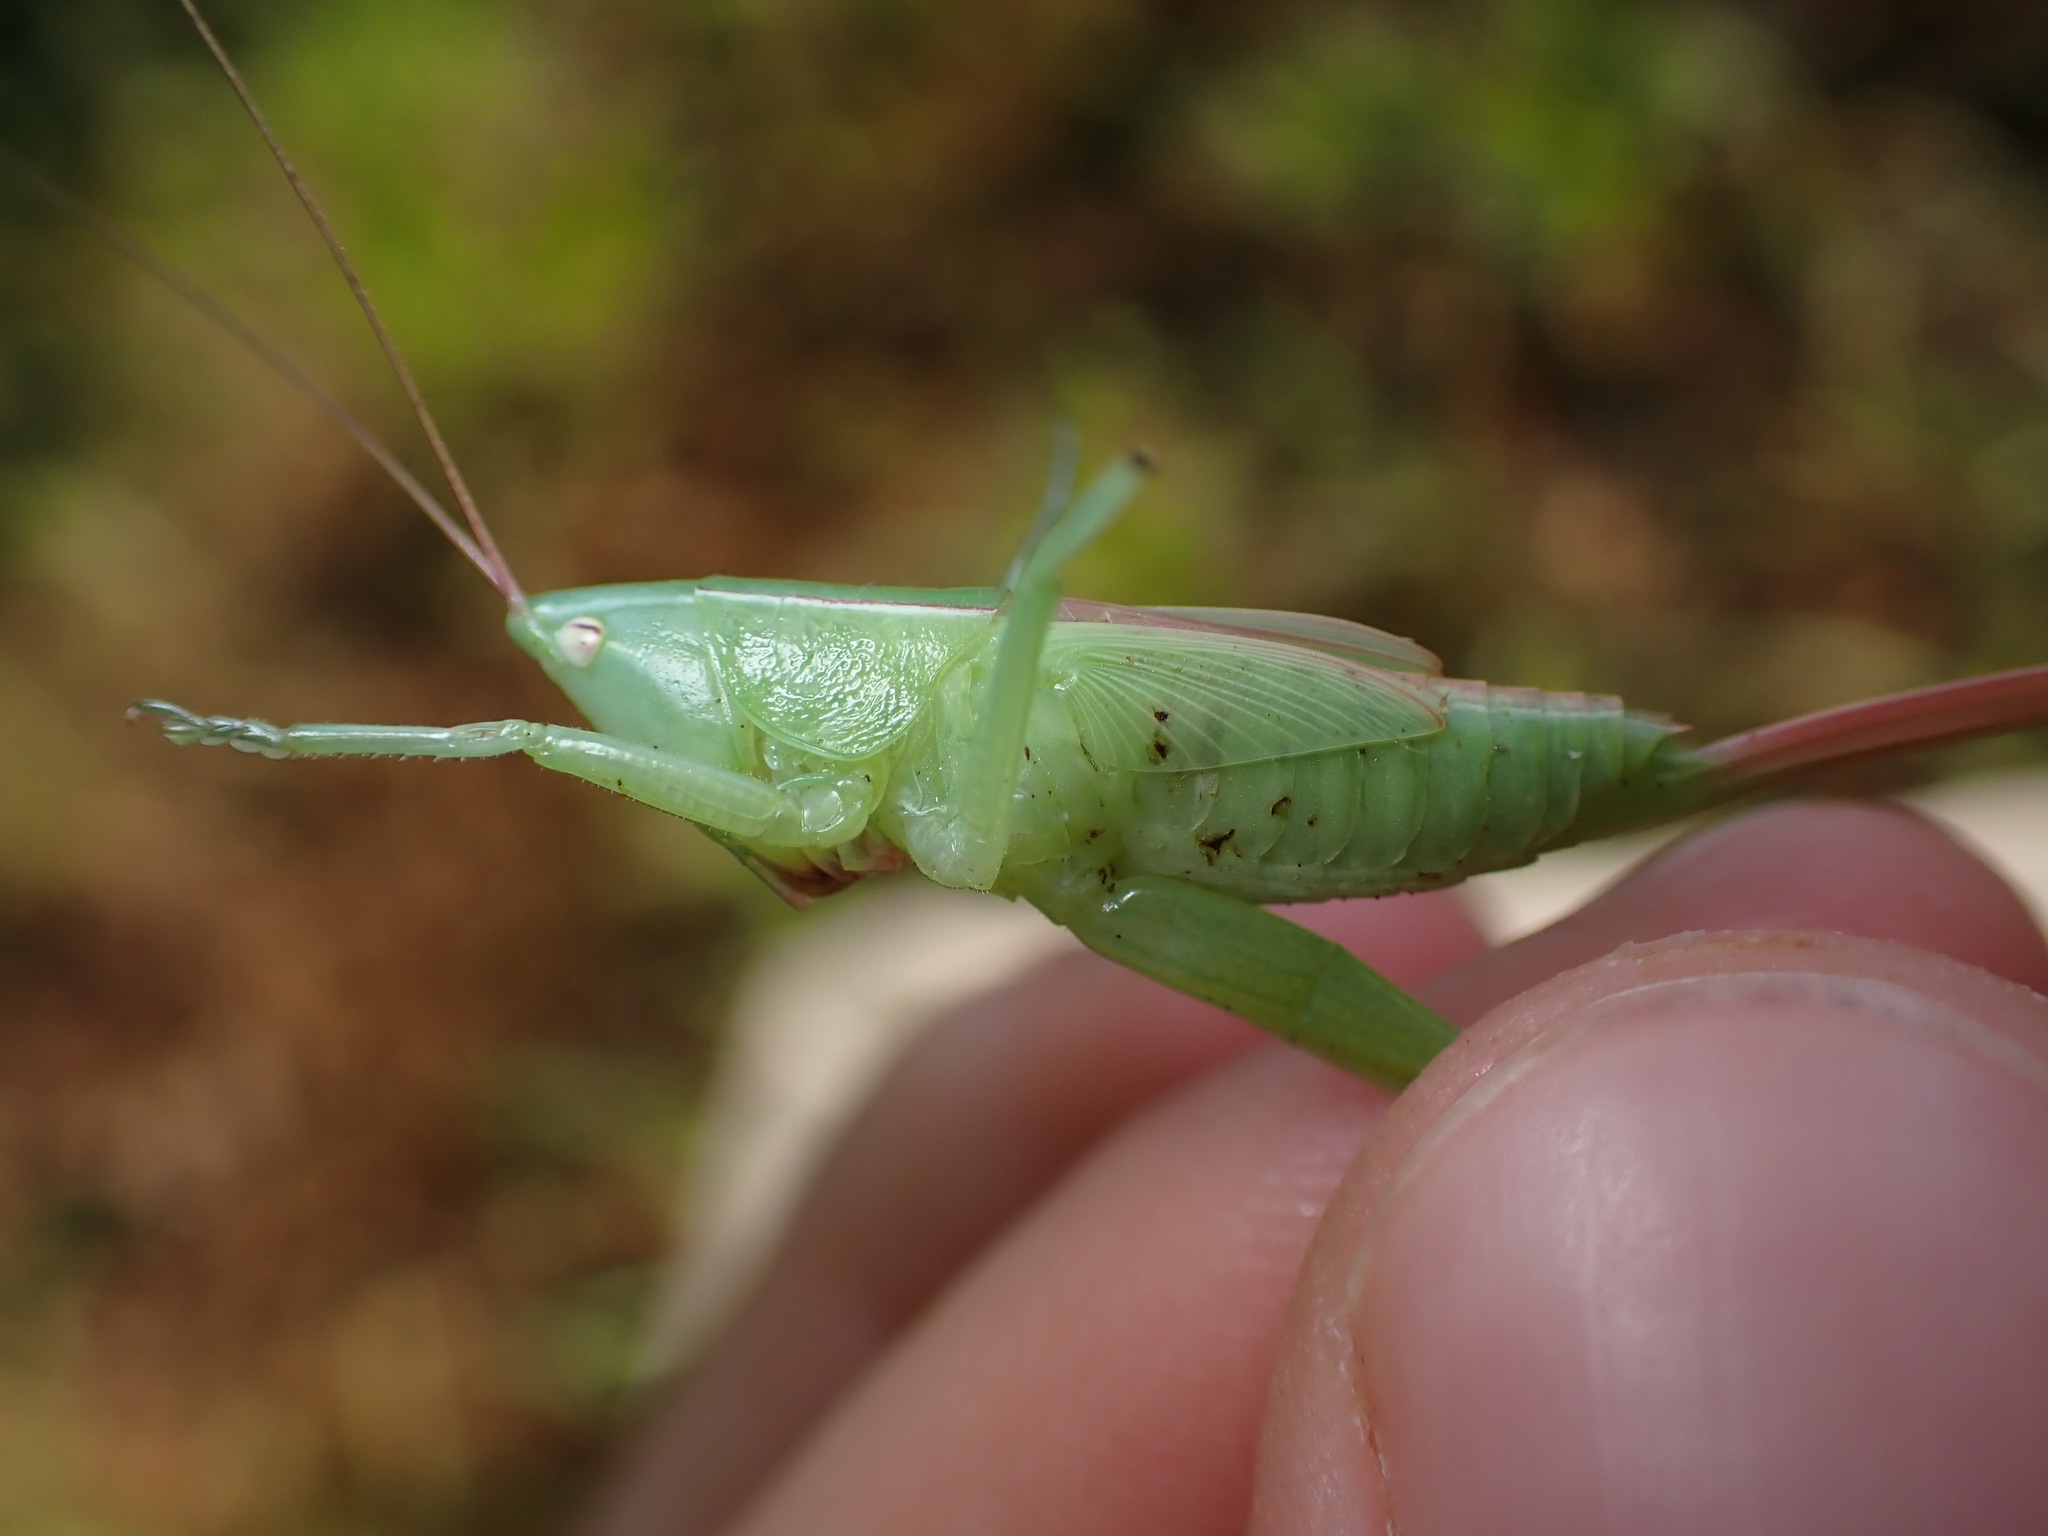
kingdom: Animalia
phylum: Arthropoda
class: Insecta
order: Orthoptera
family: Tettigoniidae
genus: Ruspolia
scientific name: Ruspolia nitidula
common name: Large conehead
